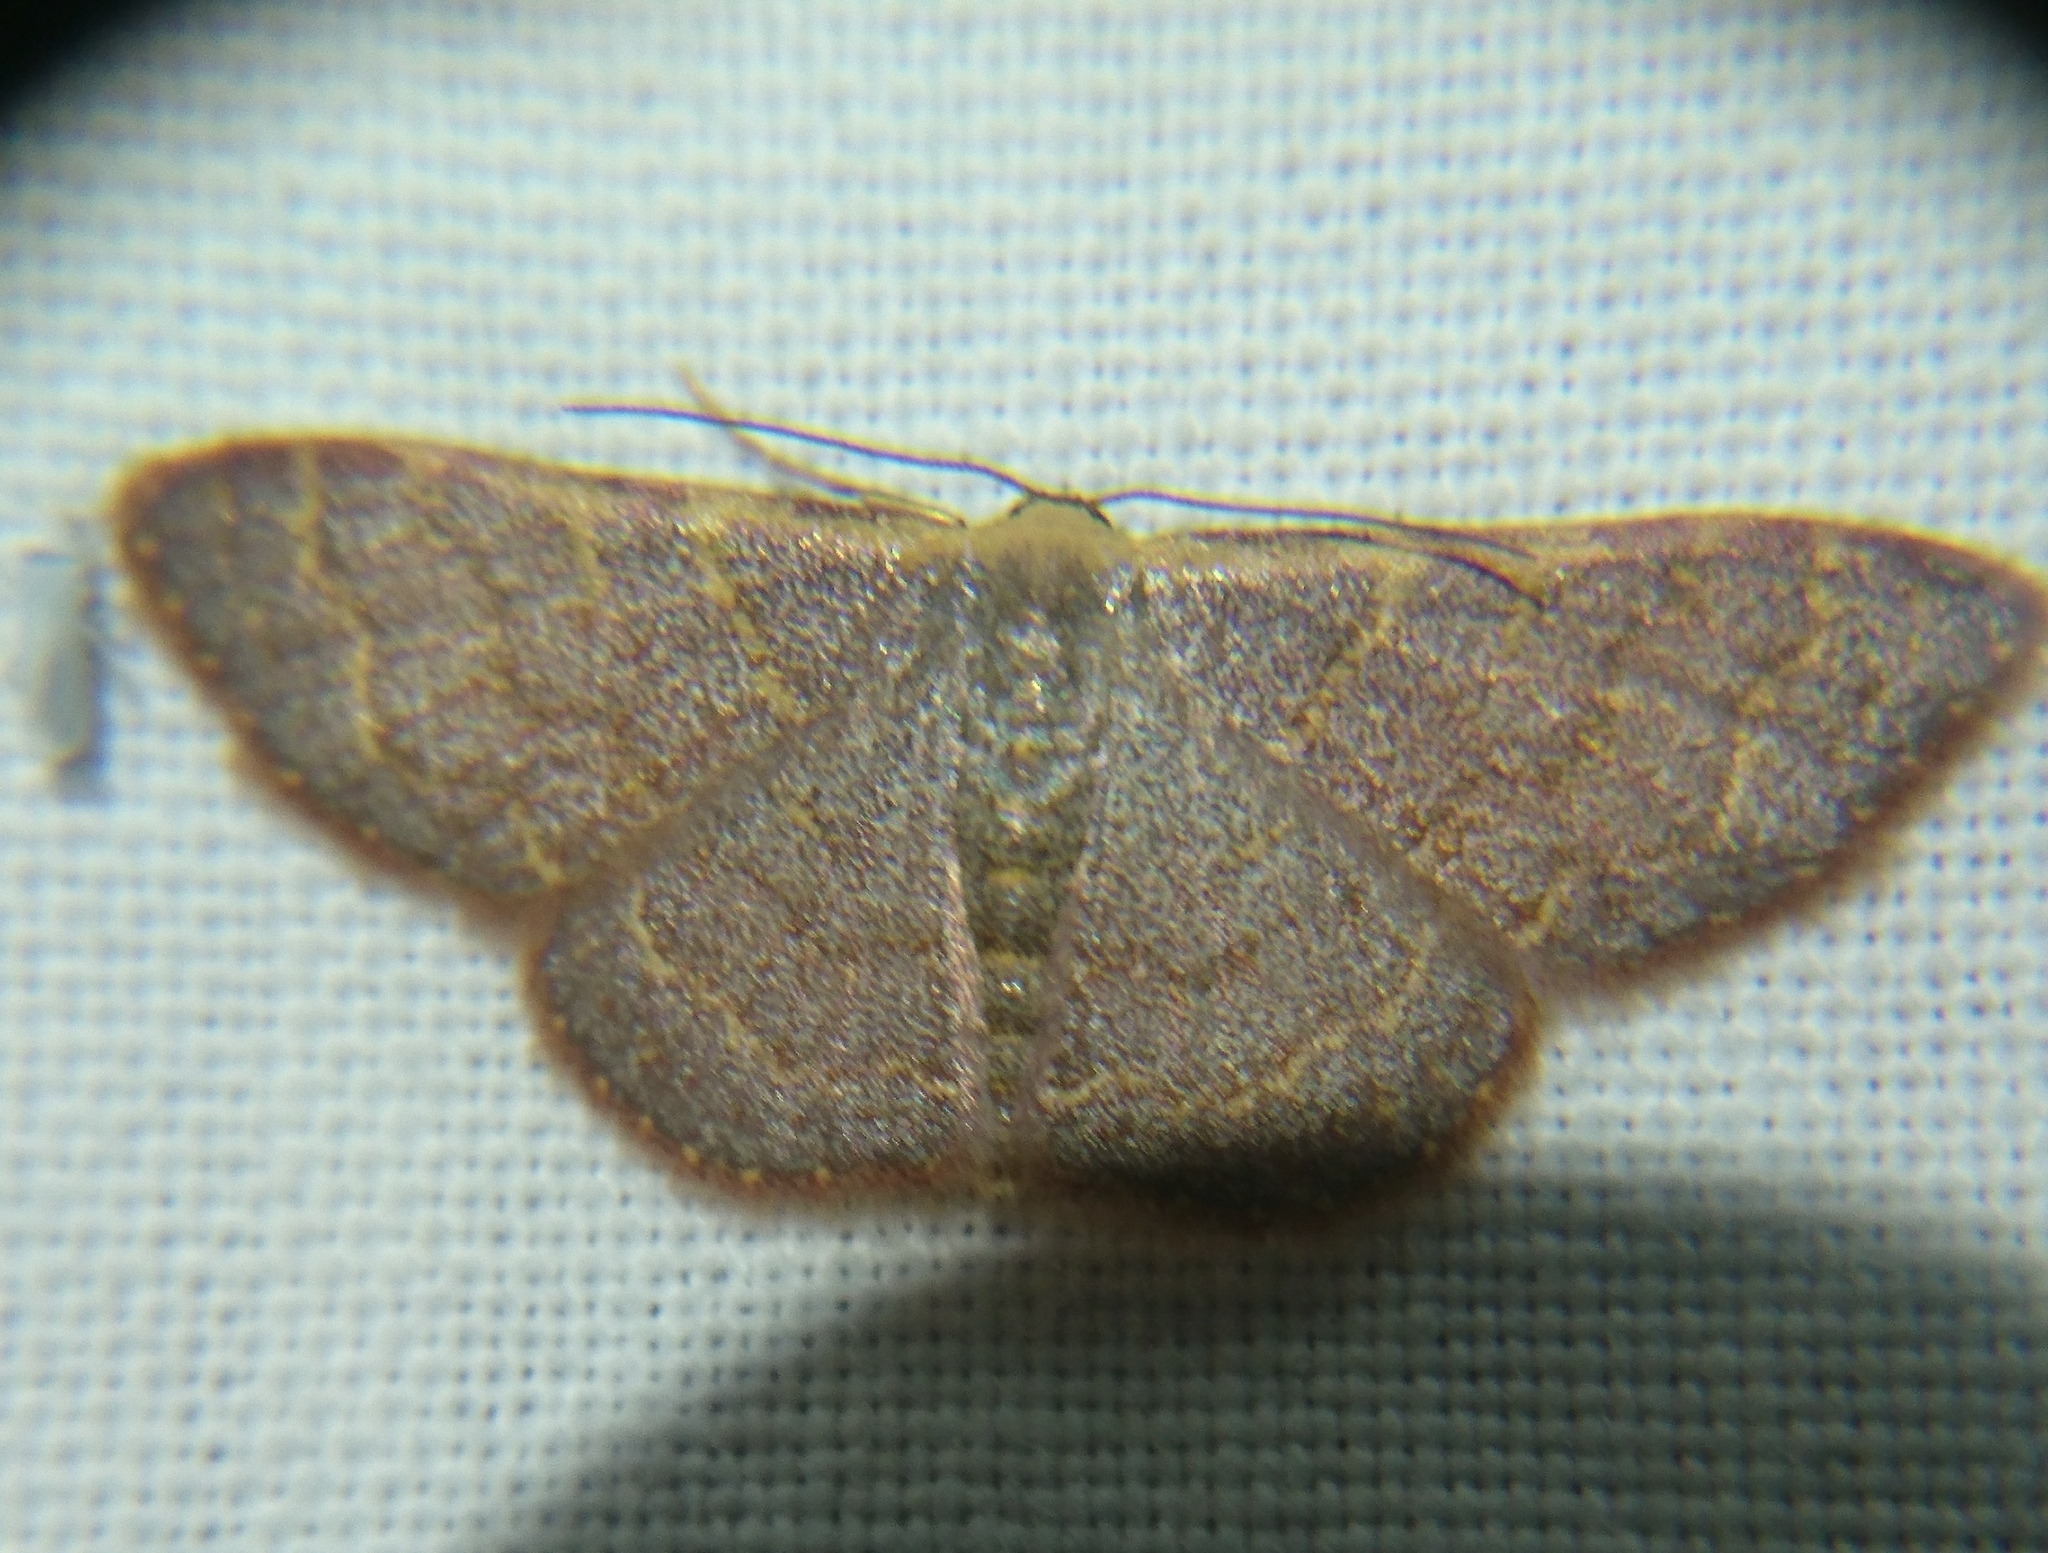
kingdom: Animalia
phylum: Arthropoda
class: Insecta
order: Lepidoptera
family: Geometridae
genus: Leptostales
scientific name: Leptostales pannaria
